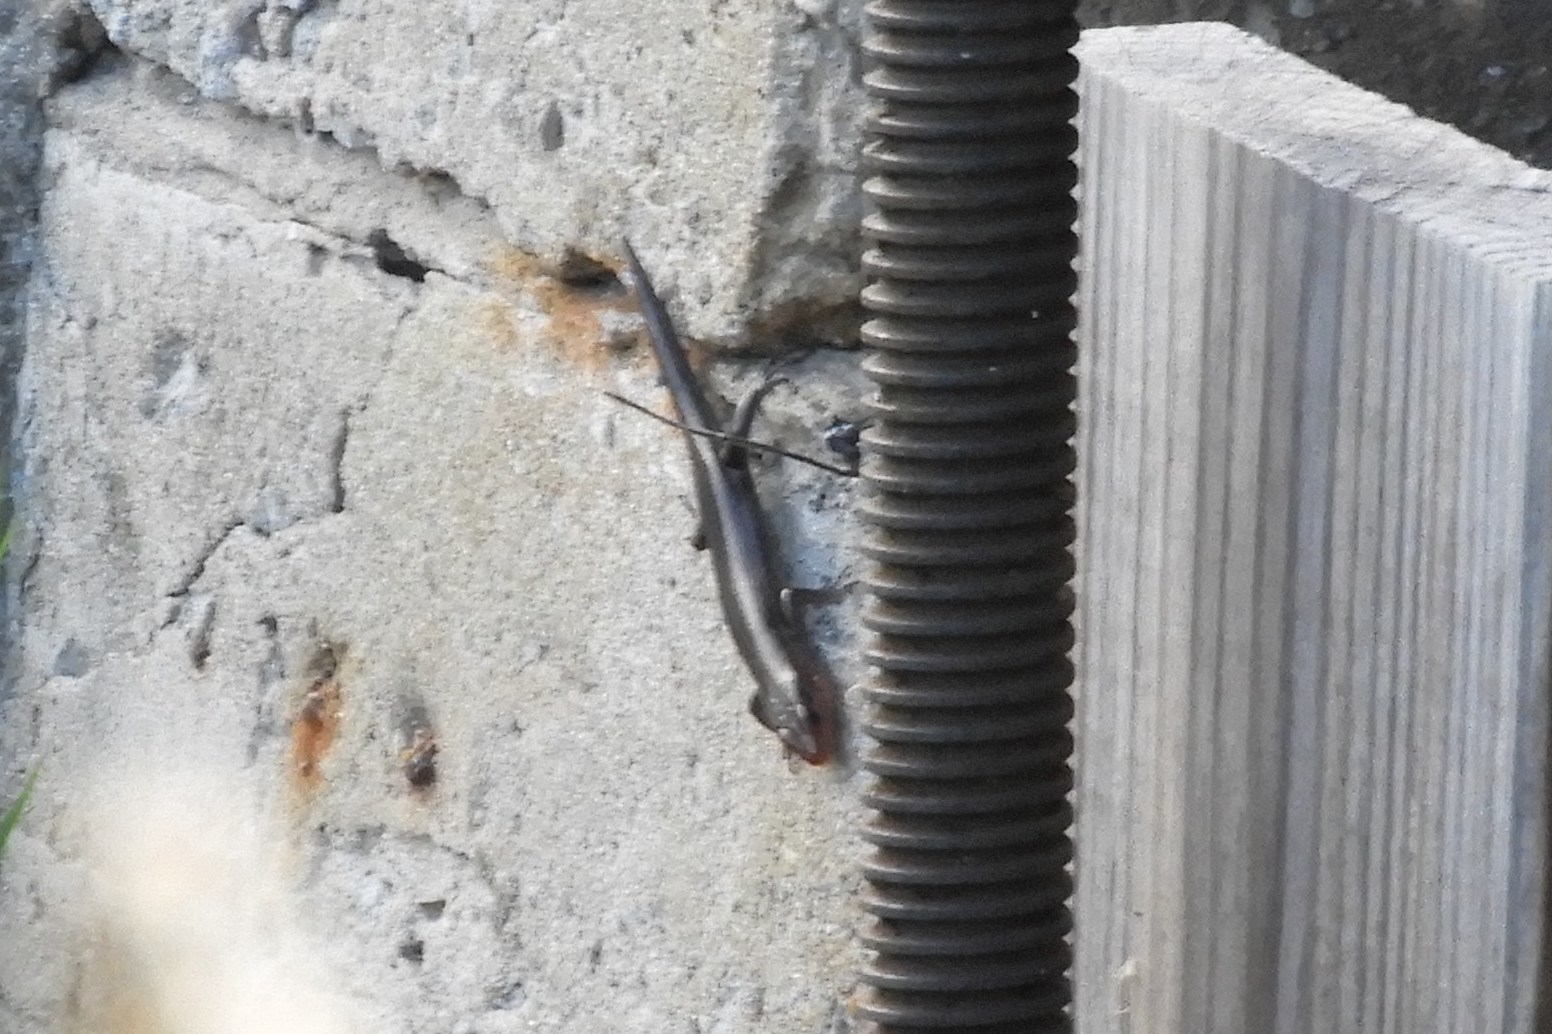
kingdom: Animalia
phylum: Chordata
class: Squamata
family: Scincidae
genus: Plestiodon
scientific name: Plestiodon fasciatus
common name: Five-lined skink
